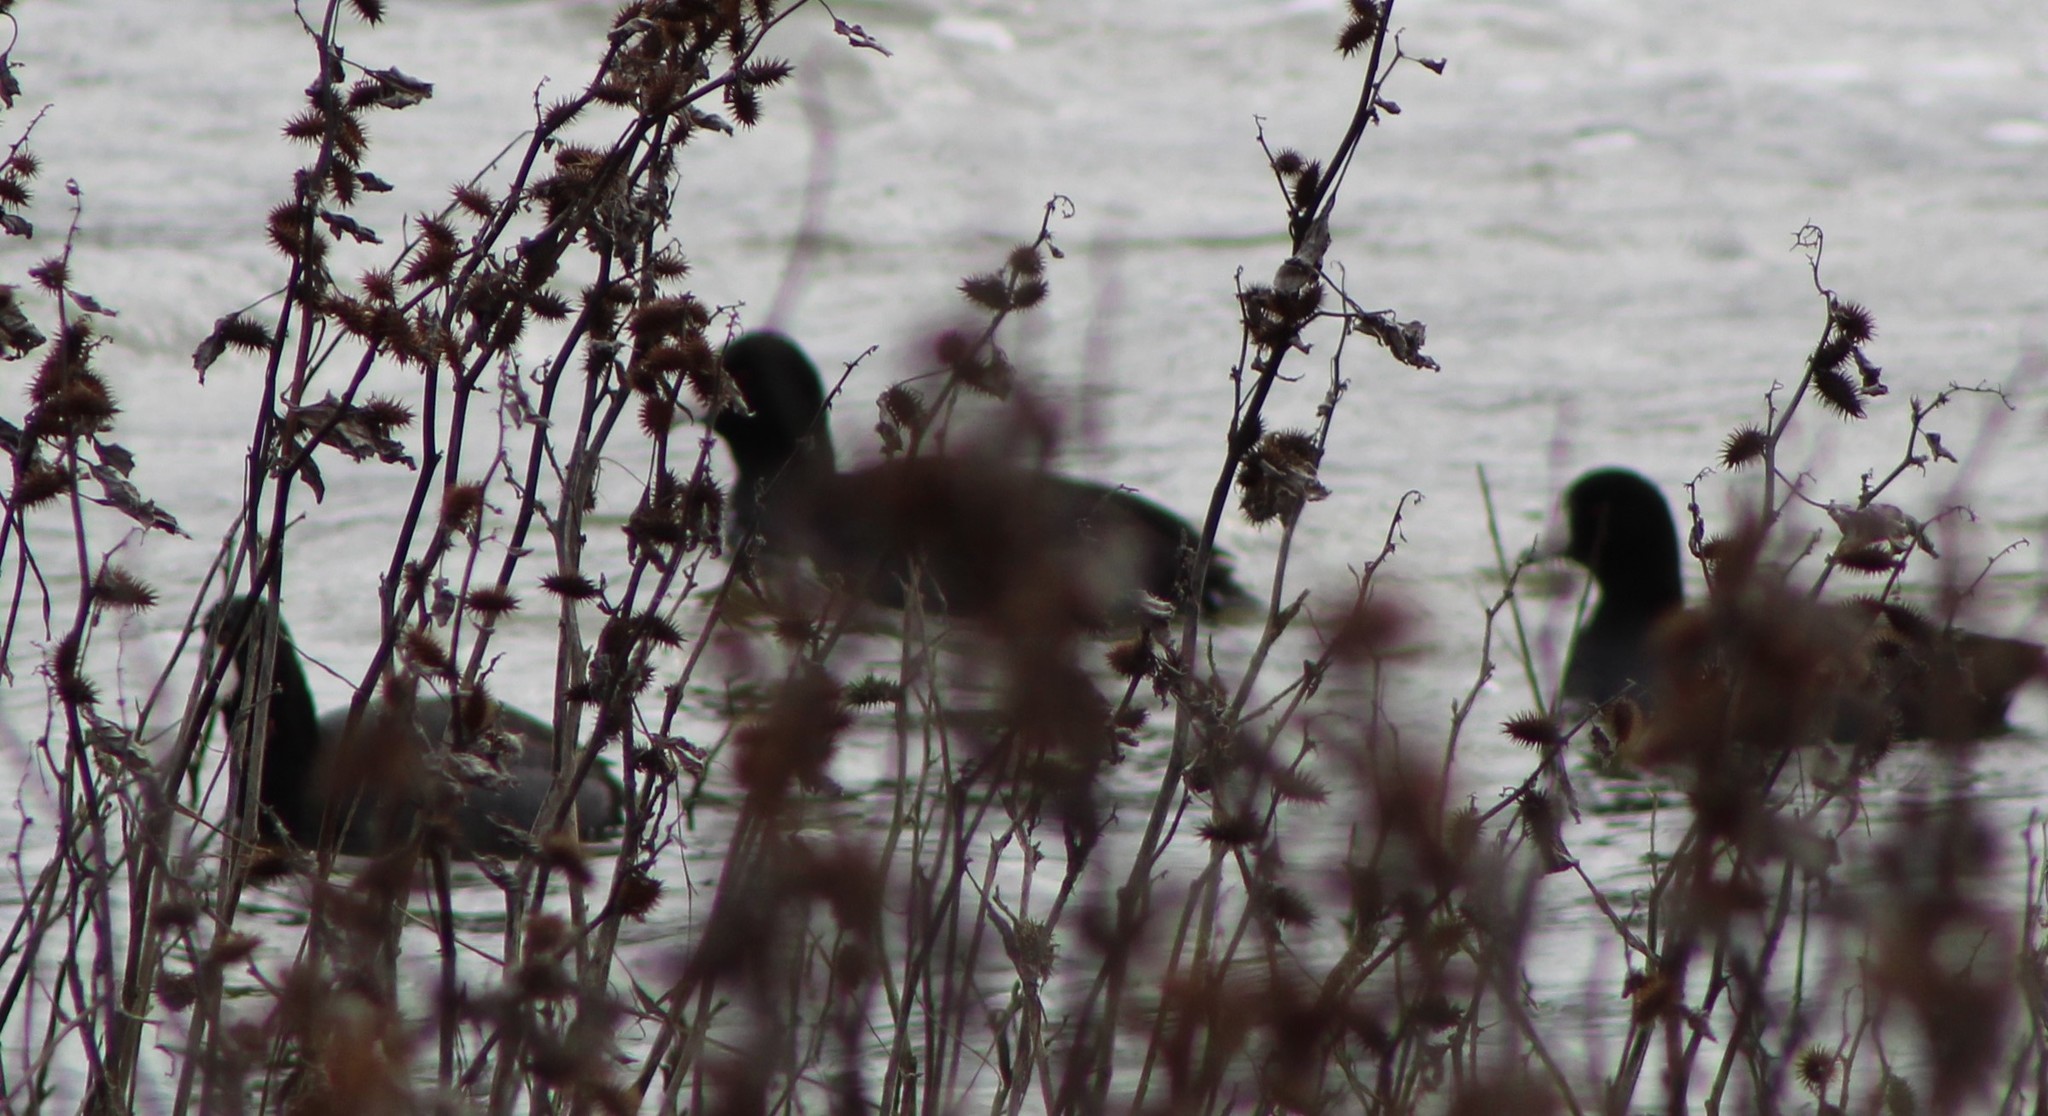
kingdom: Animalia
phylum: Chordata
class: Aves
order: Gruiformes
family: Rallidae
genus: Fulica
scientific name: Fulica americana
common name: American coot
